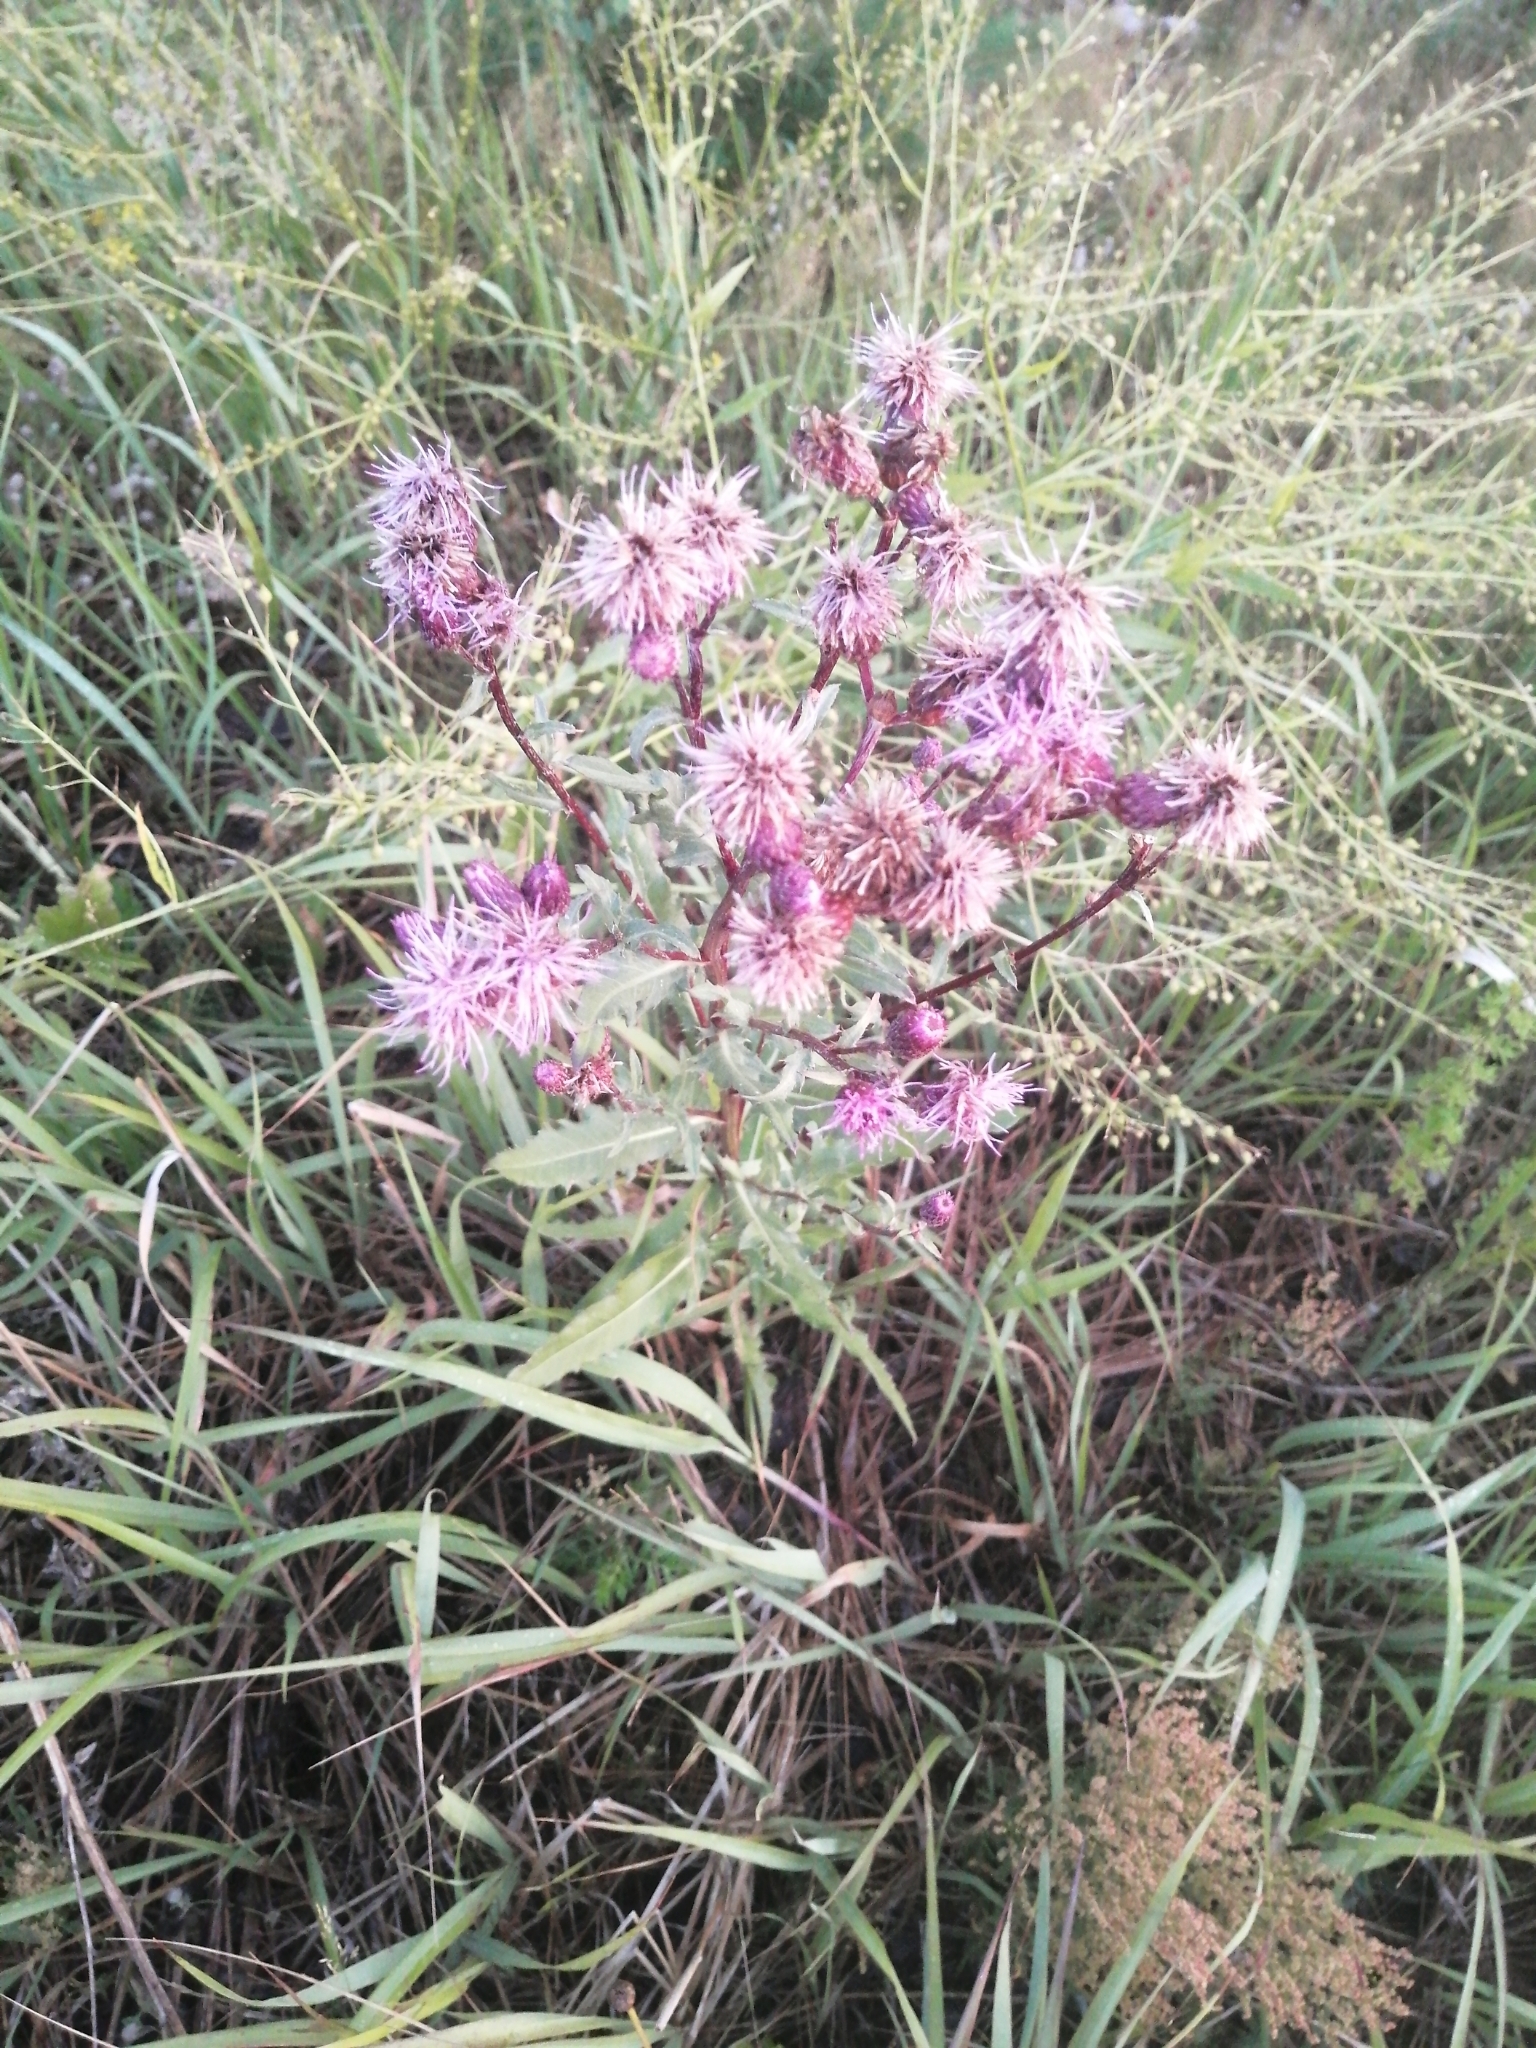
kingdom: Plantae
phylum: Tracheophyta
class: Magnoliopsida
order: Asterales
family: Asteraceae
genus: Cirsium
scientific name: Cirsium arvense
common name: Creeping thistle
